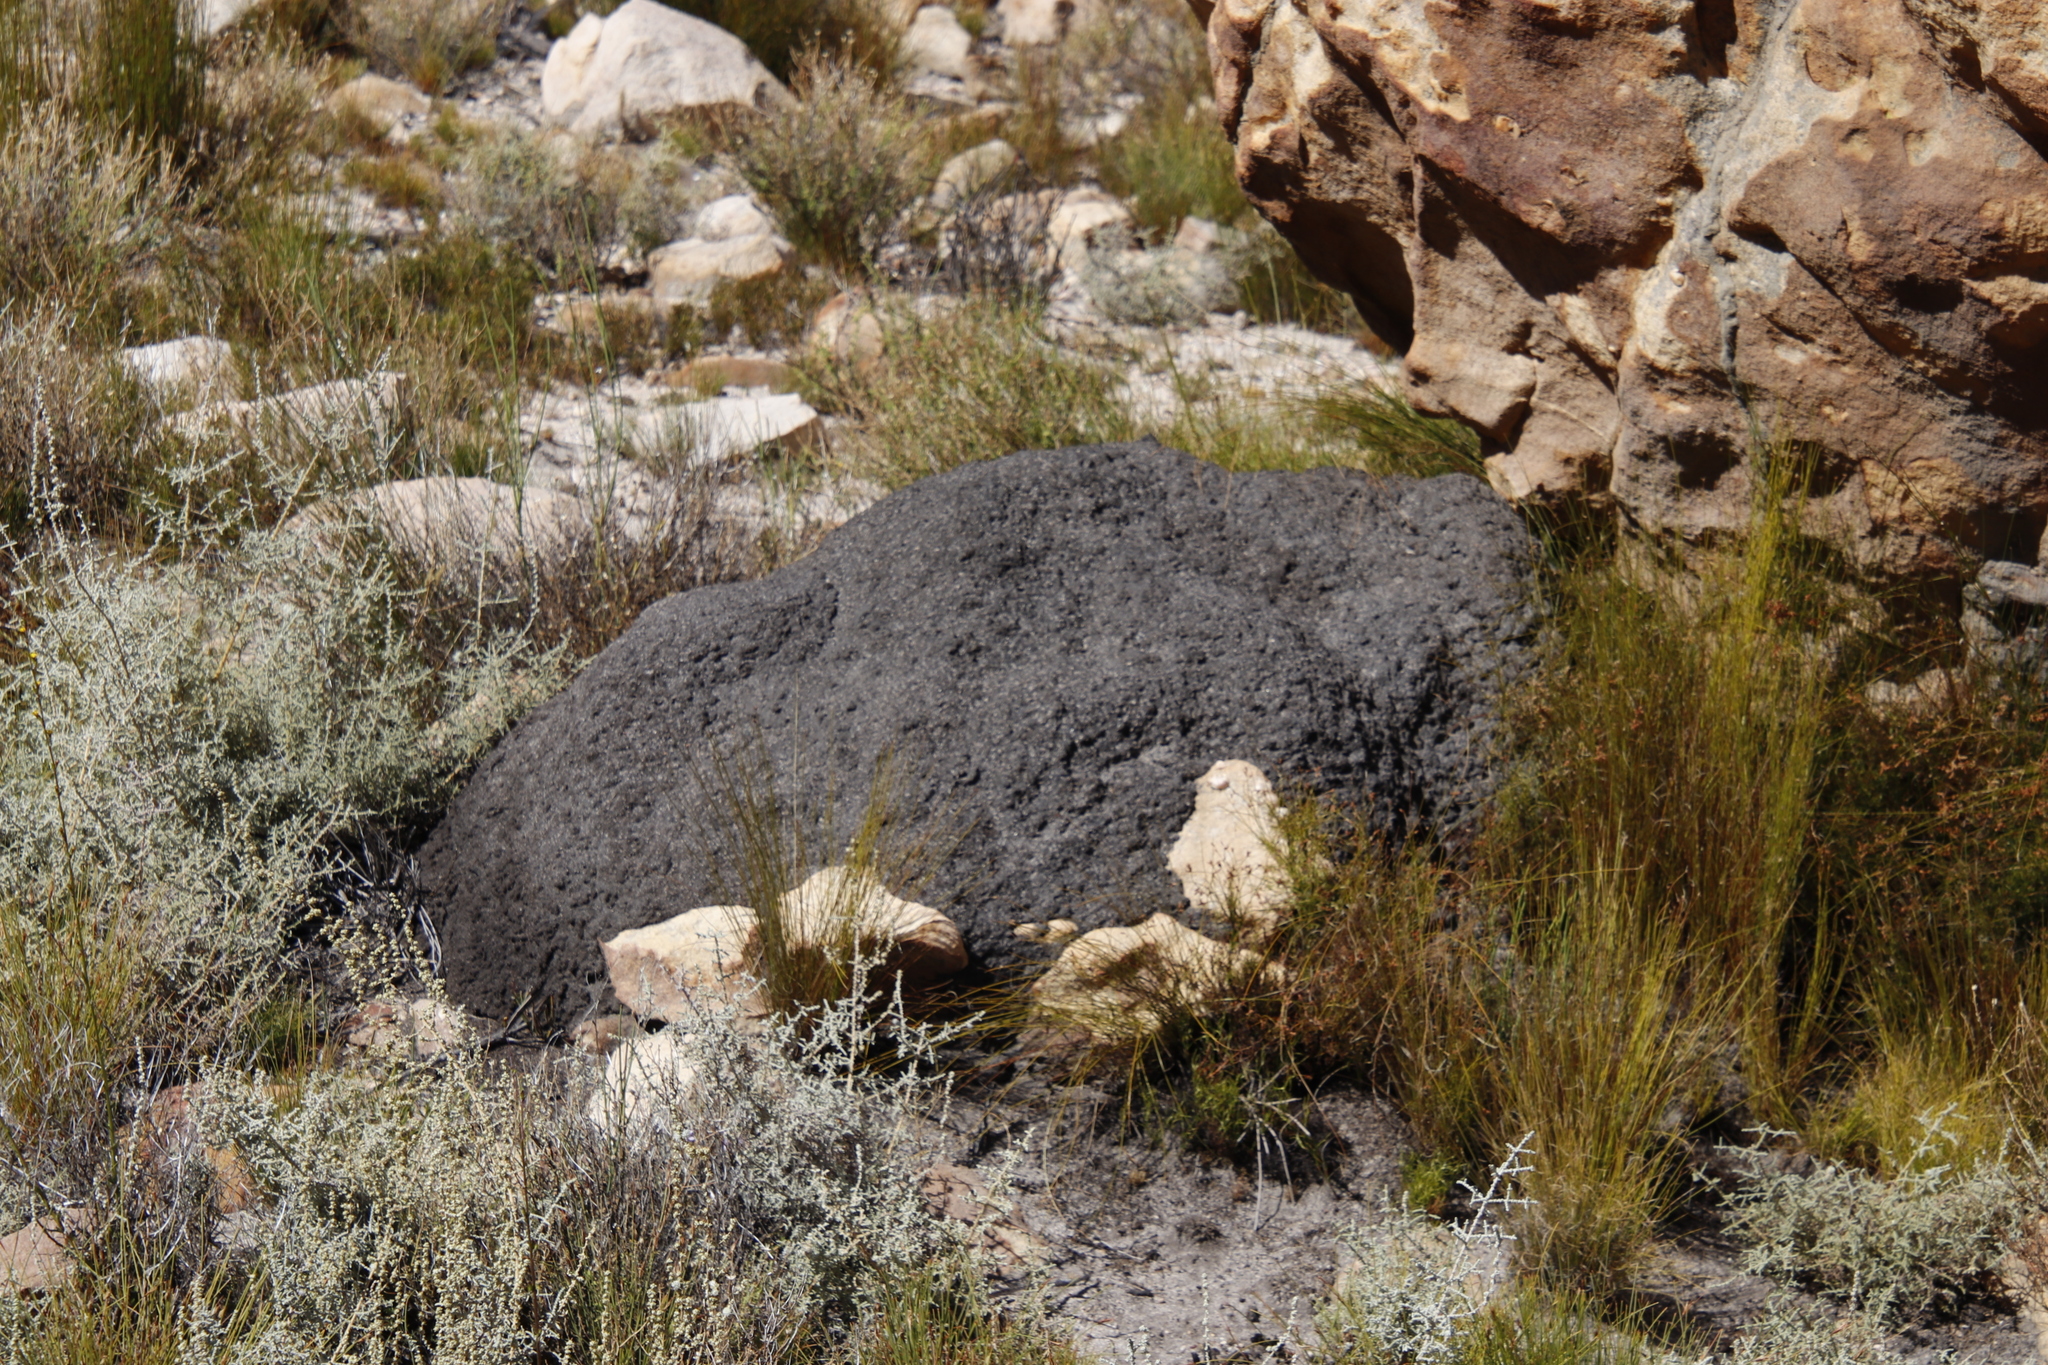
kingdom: Animalia
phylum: Arthropoda
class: Insecta
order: Blattodea
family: Termitidae
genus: Amitermes
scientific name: Amitermes hastatus
